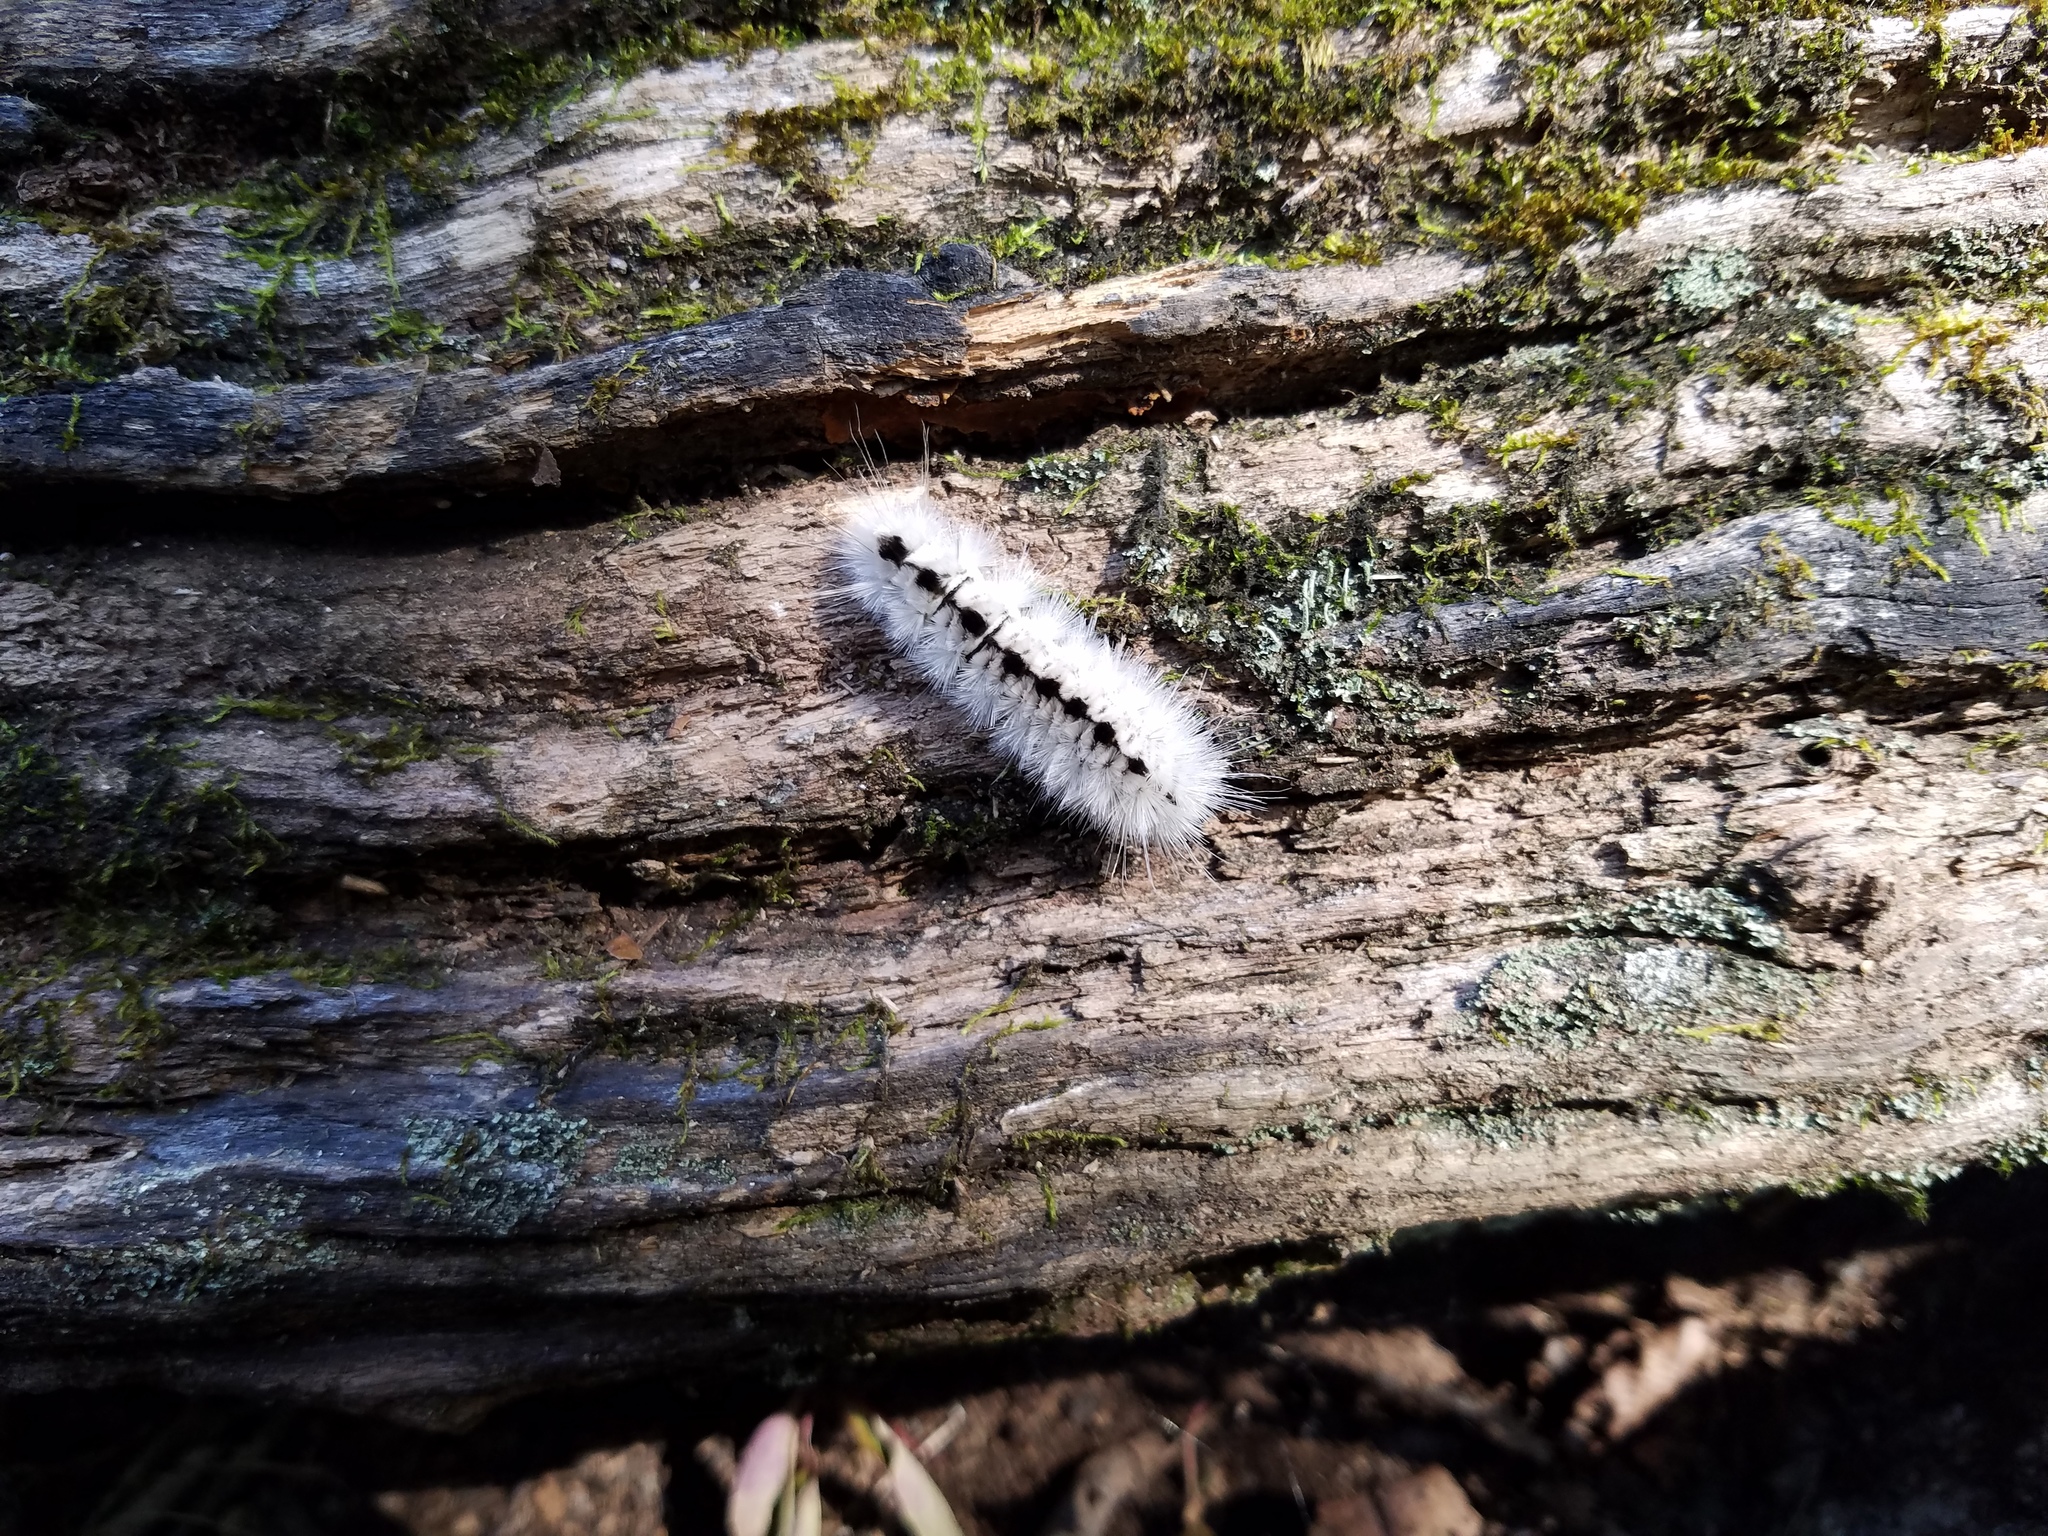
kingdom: Animalia
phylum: Arthropoda
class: Insecta
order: Lepidoptera
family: Erebidae
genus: Lophocampa
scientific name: Lophocampa caryae
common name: Hickory tussock moth
